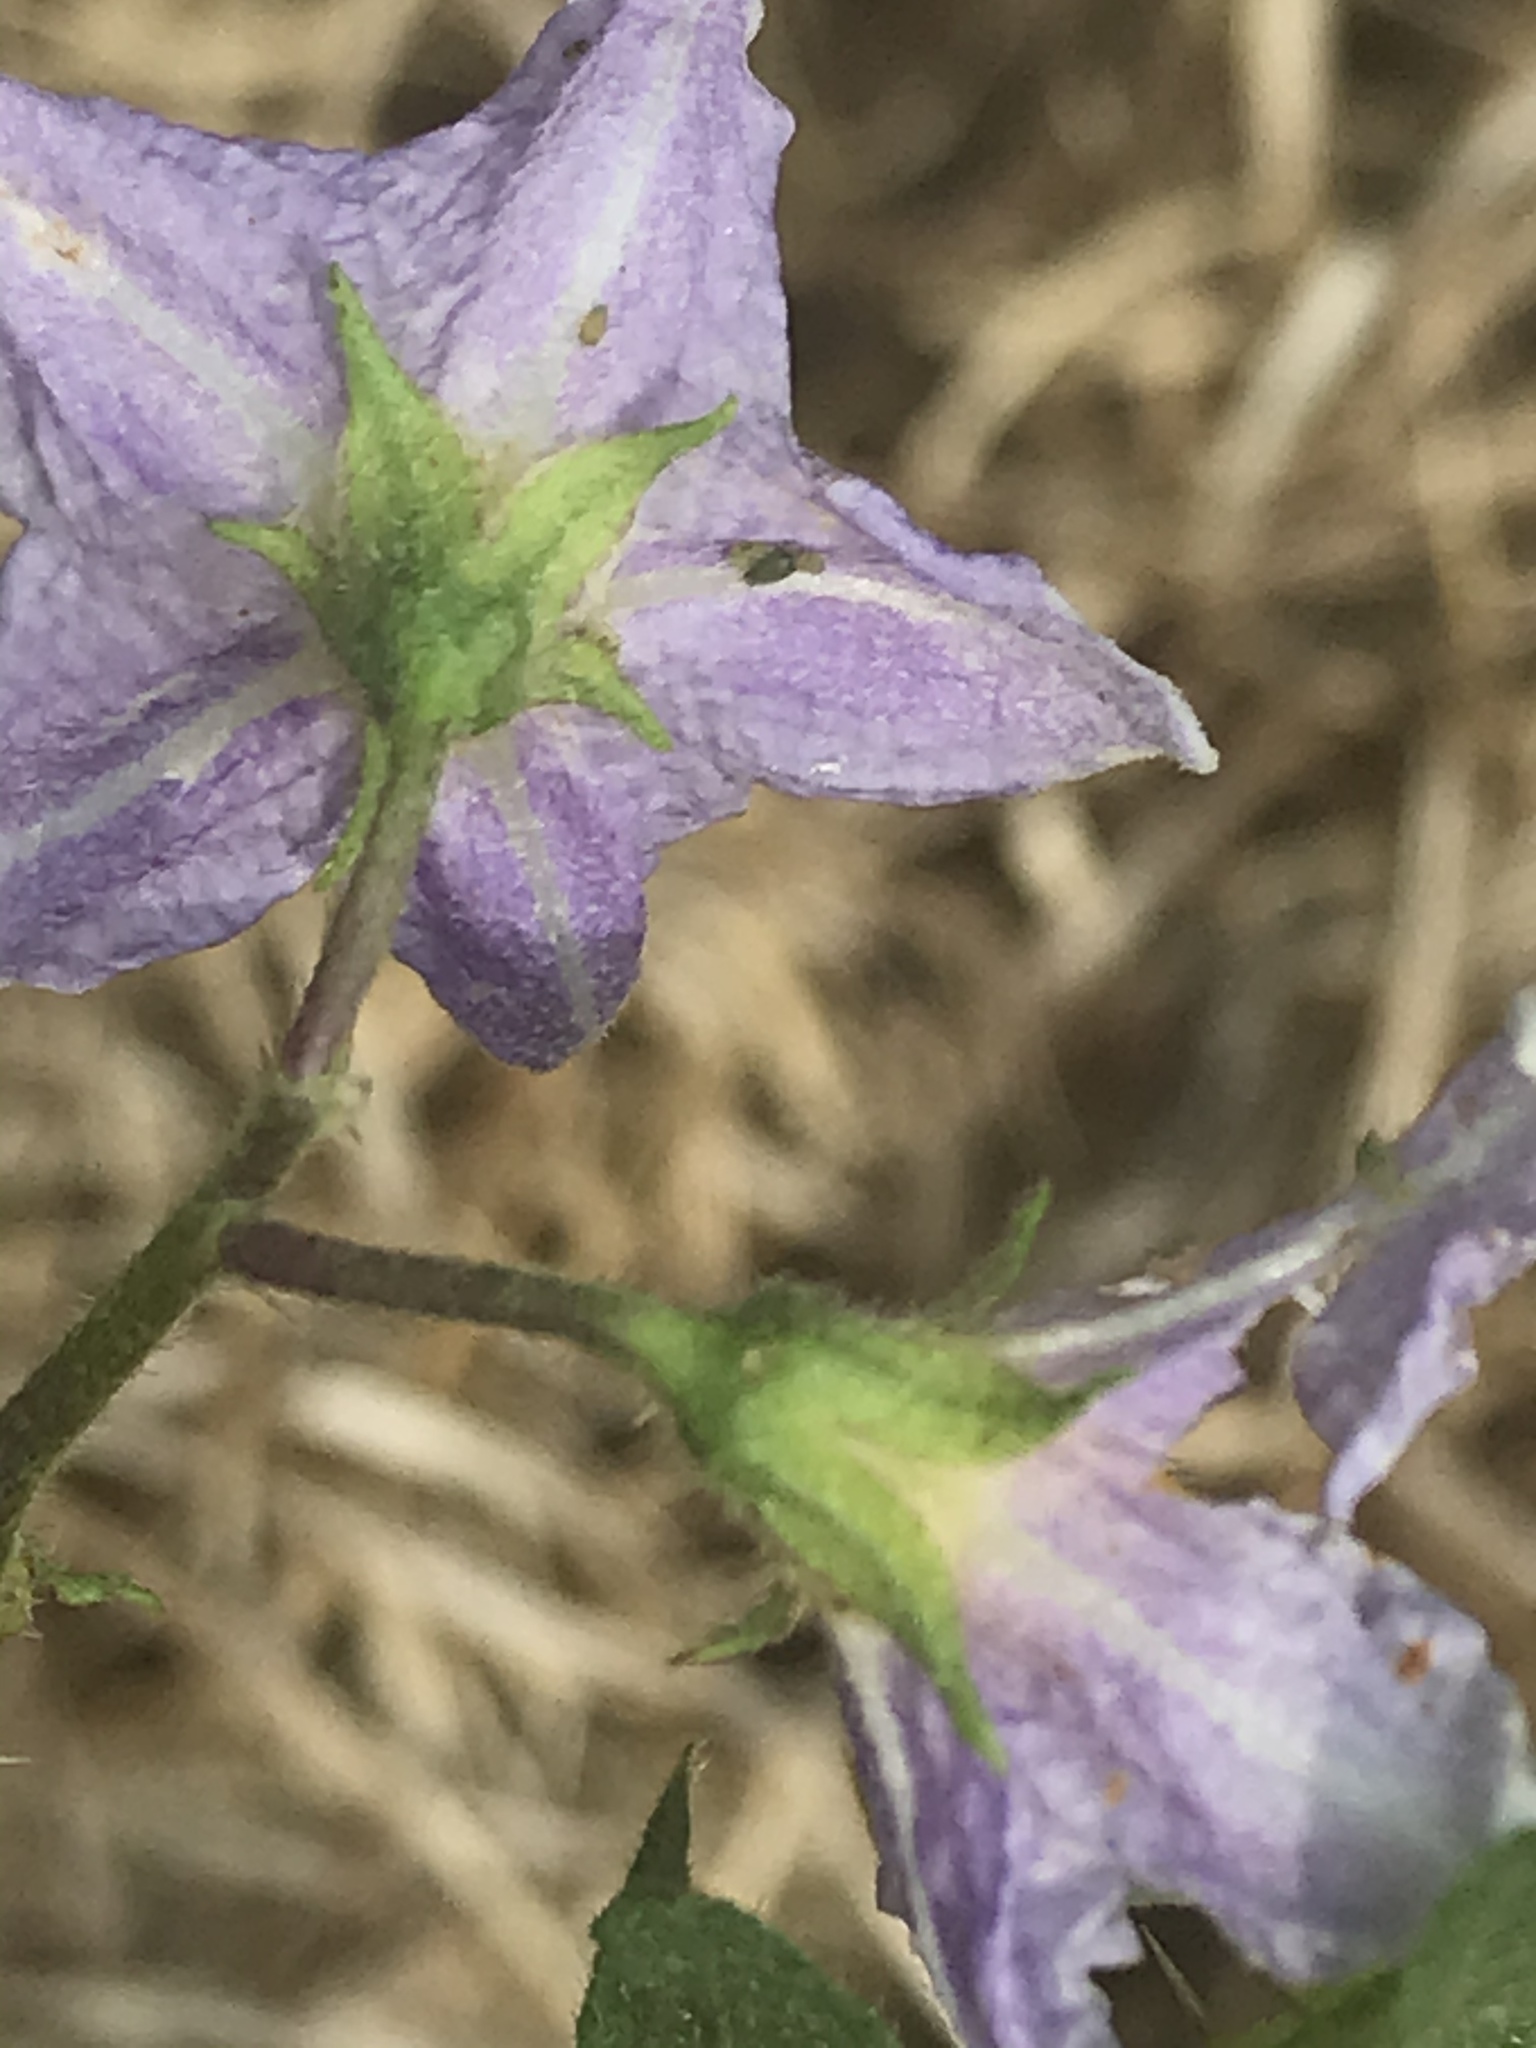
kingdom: Plantae
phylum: Tracheophyta
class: Magnoliopsida
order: Solanales
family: Solanaceae
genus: Solanum
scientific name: Solanum carolinense
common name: Horse-nettle
